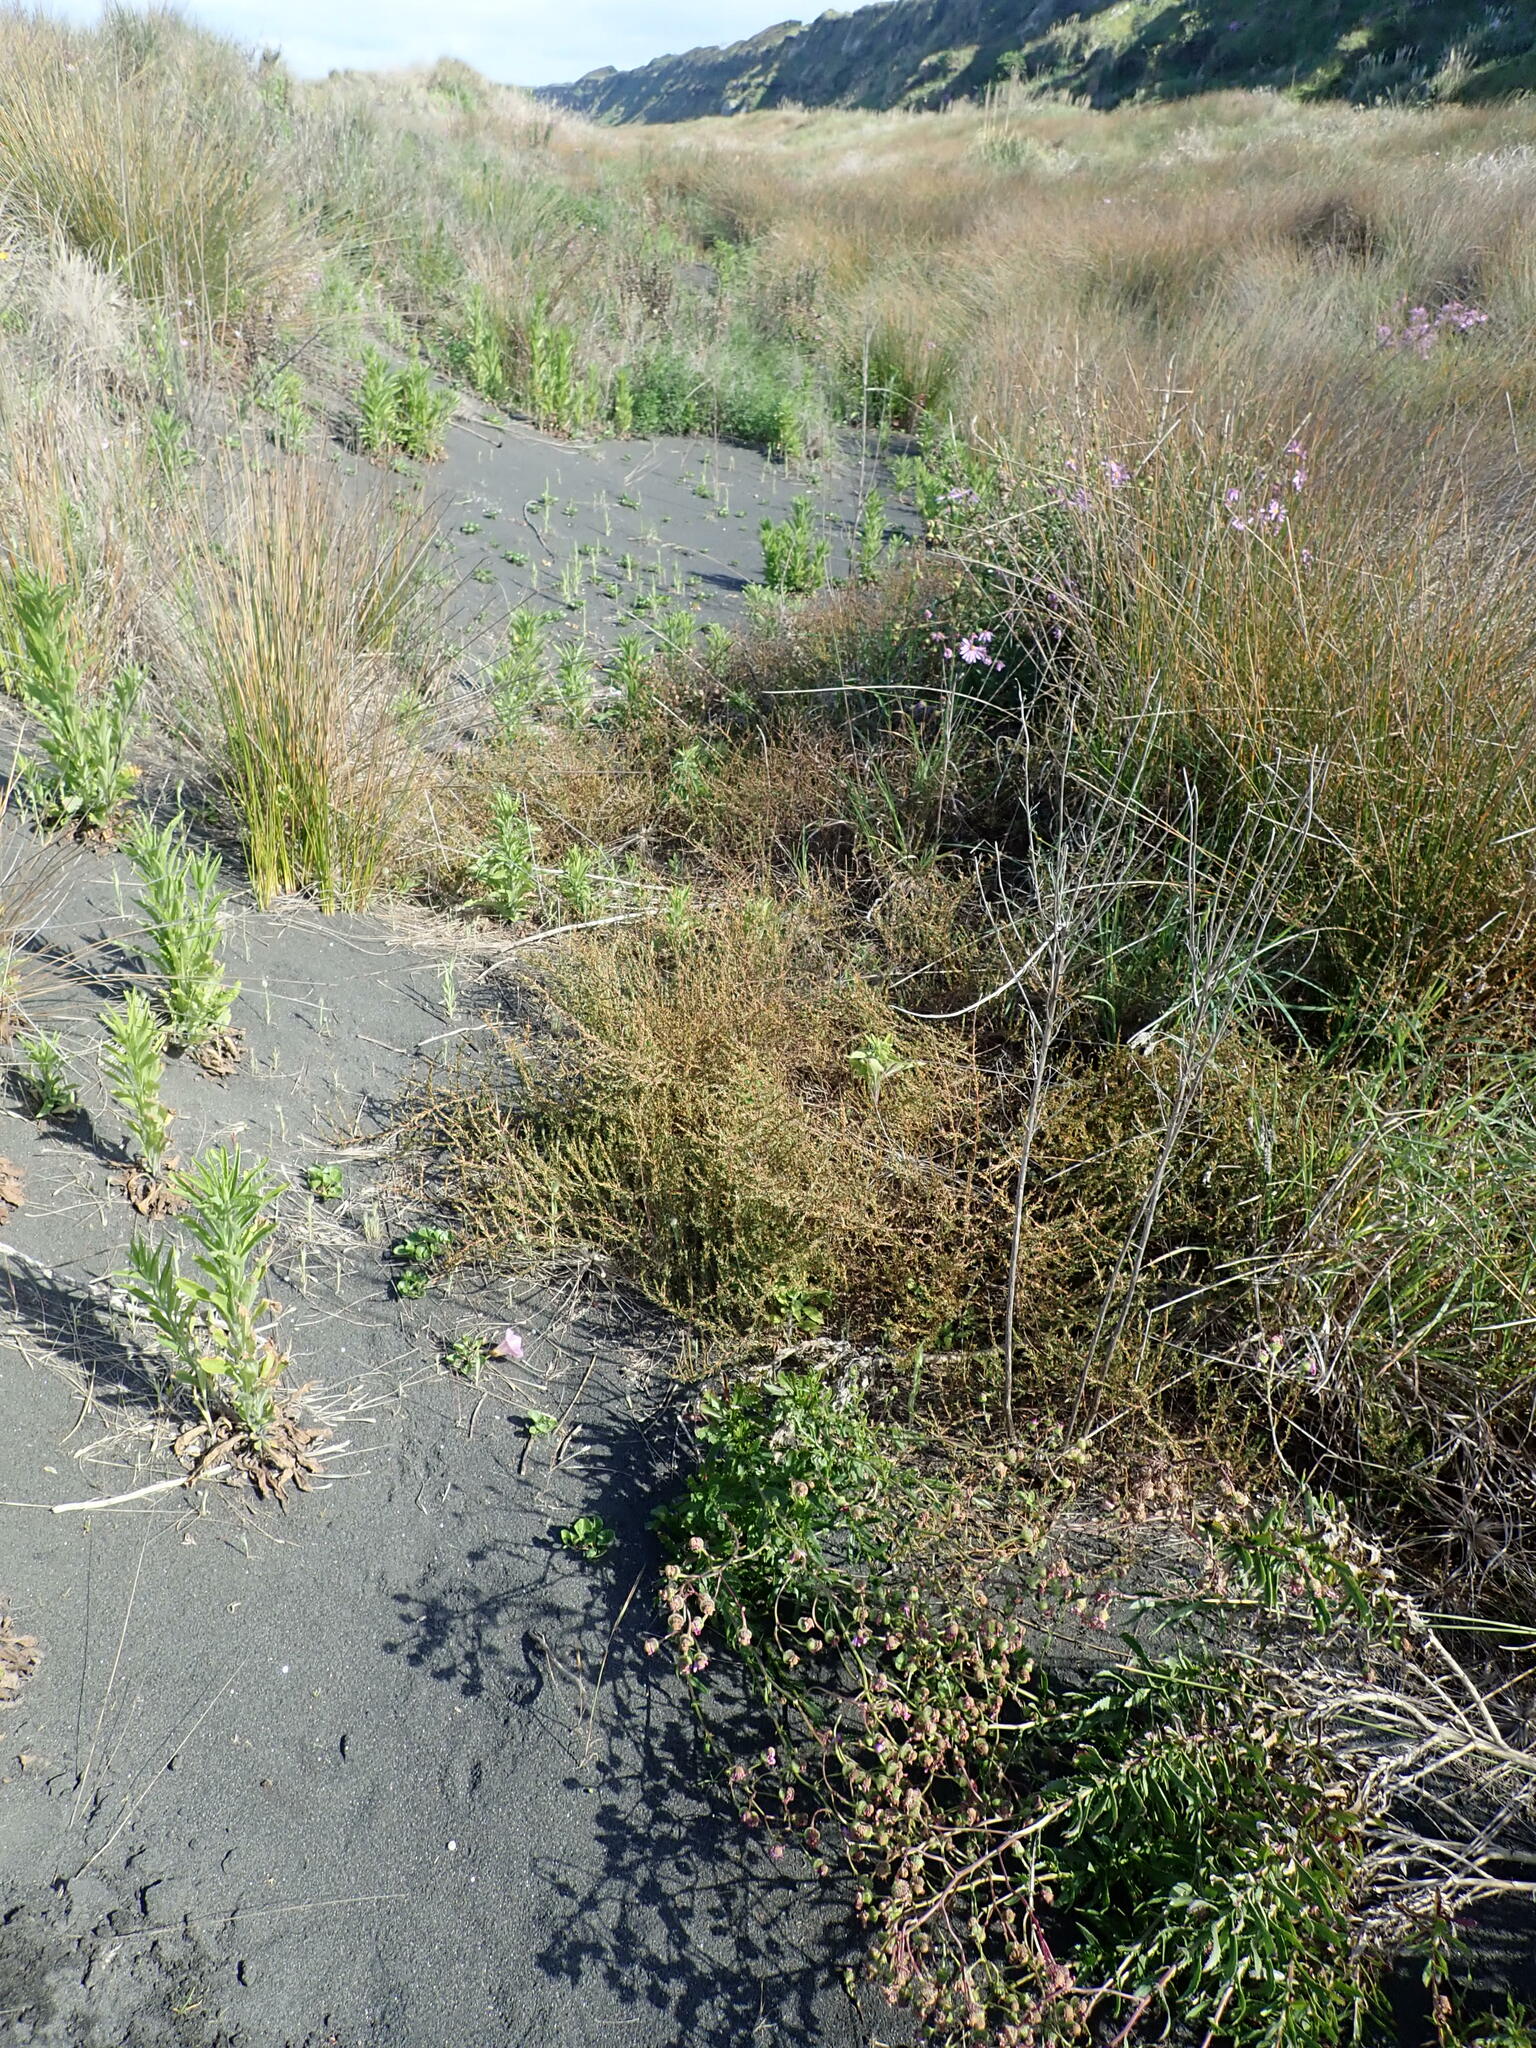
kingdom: Plantae
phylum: Tracheophyta
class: Magnoliopsida
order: Gentianales
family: Rubiaceae
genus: Coprosma
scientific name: Coprosma acerosa
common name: Sand coprosma
